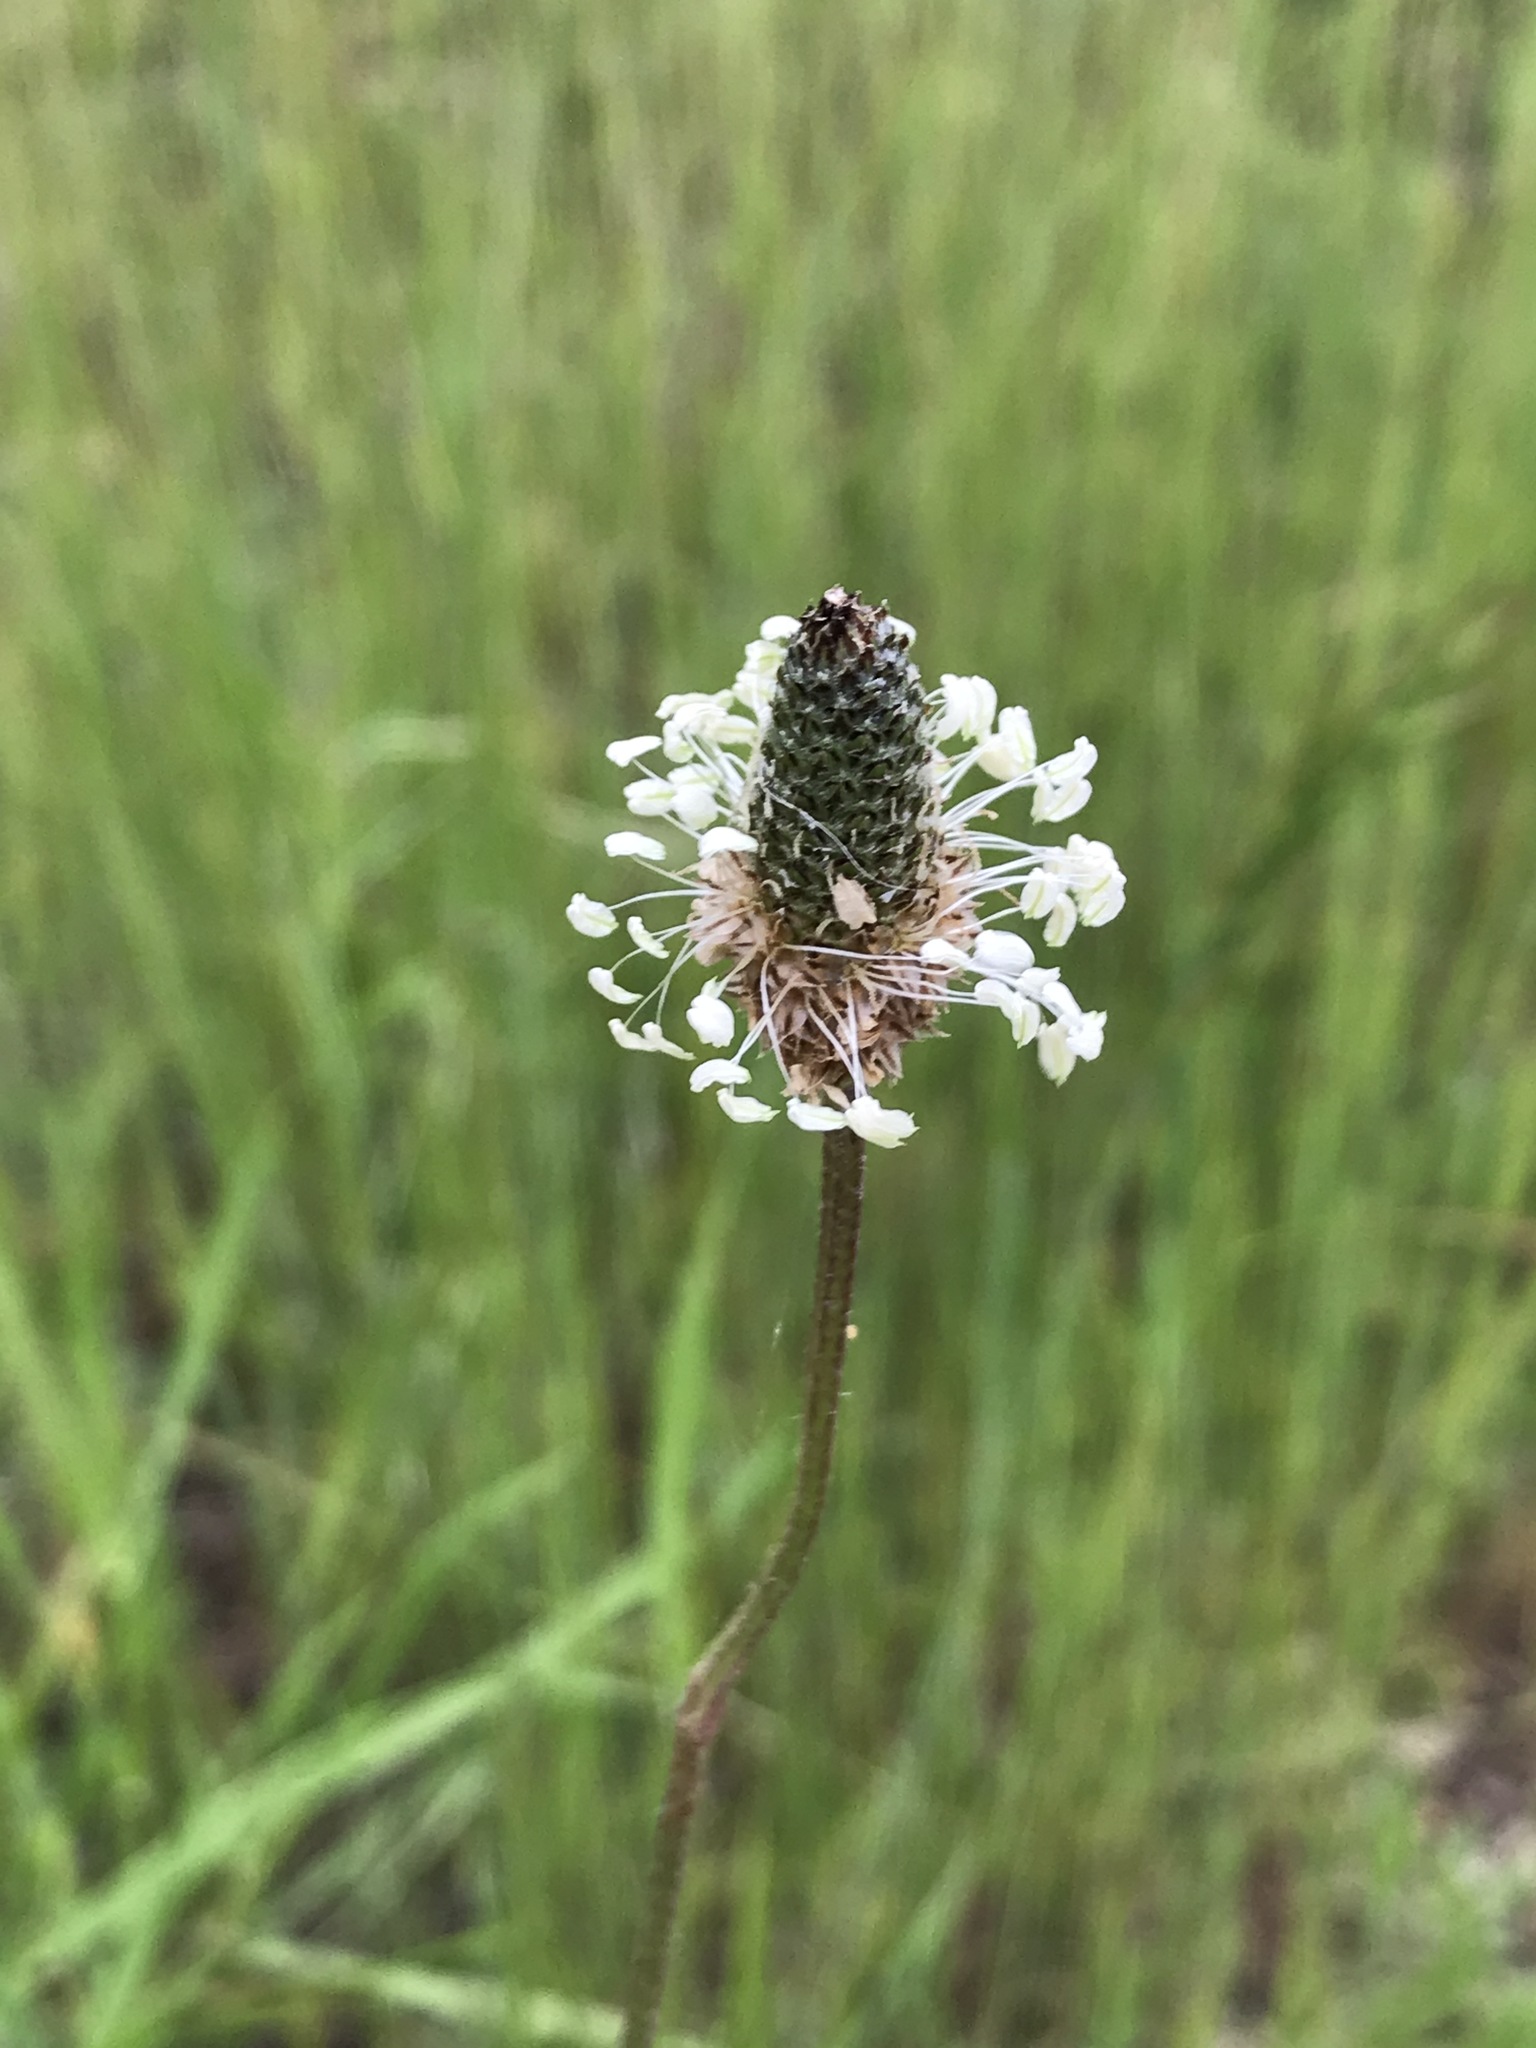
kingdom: Plantae
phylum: Tracheophyta
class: Magnoliopsida
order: Lamiales
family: Plantaginaceae
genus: Plantago
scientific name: Plantago lanceolata
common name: Ribwort plantain
